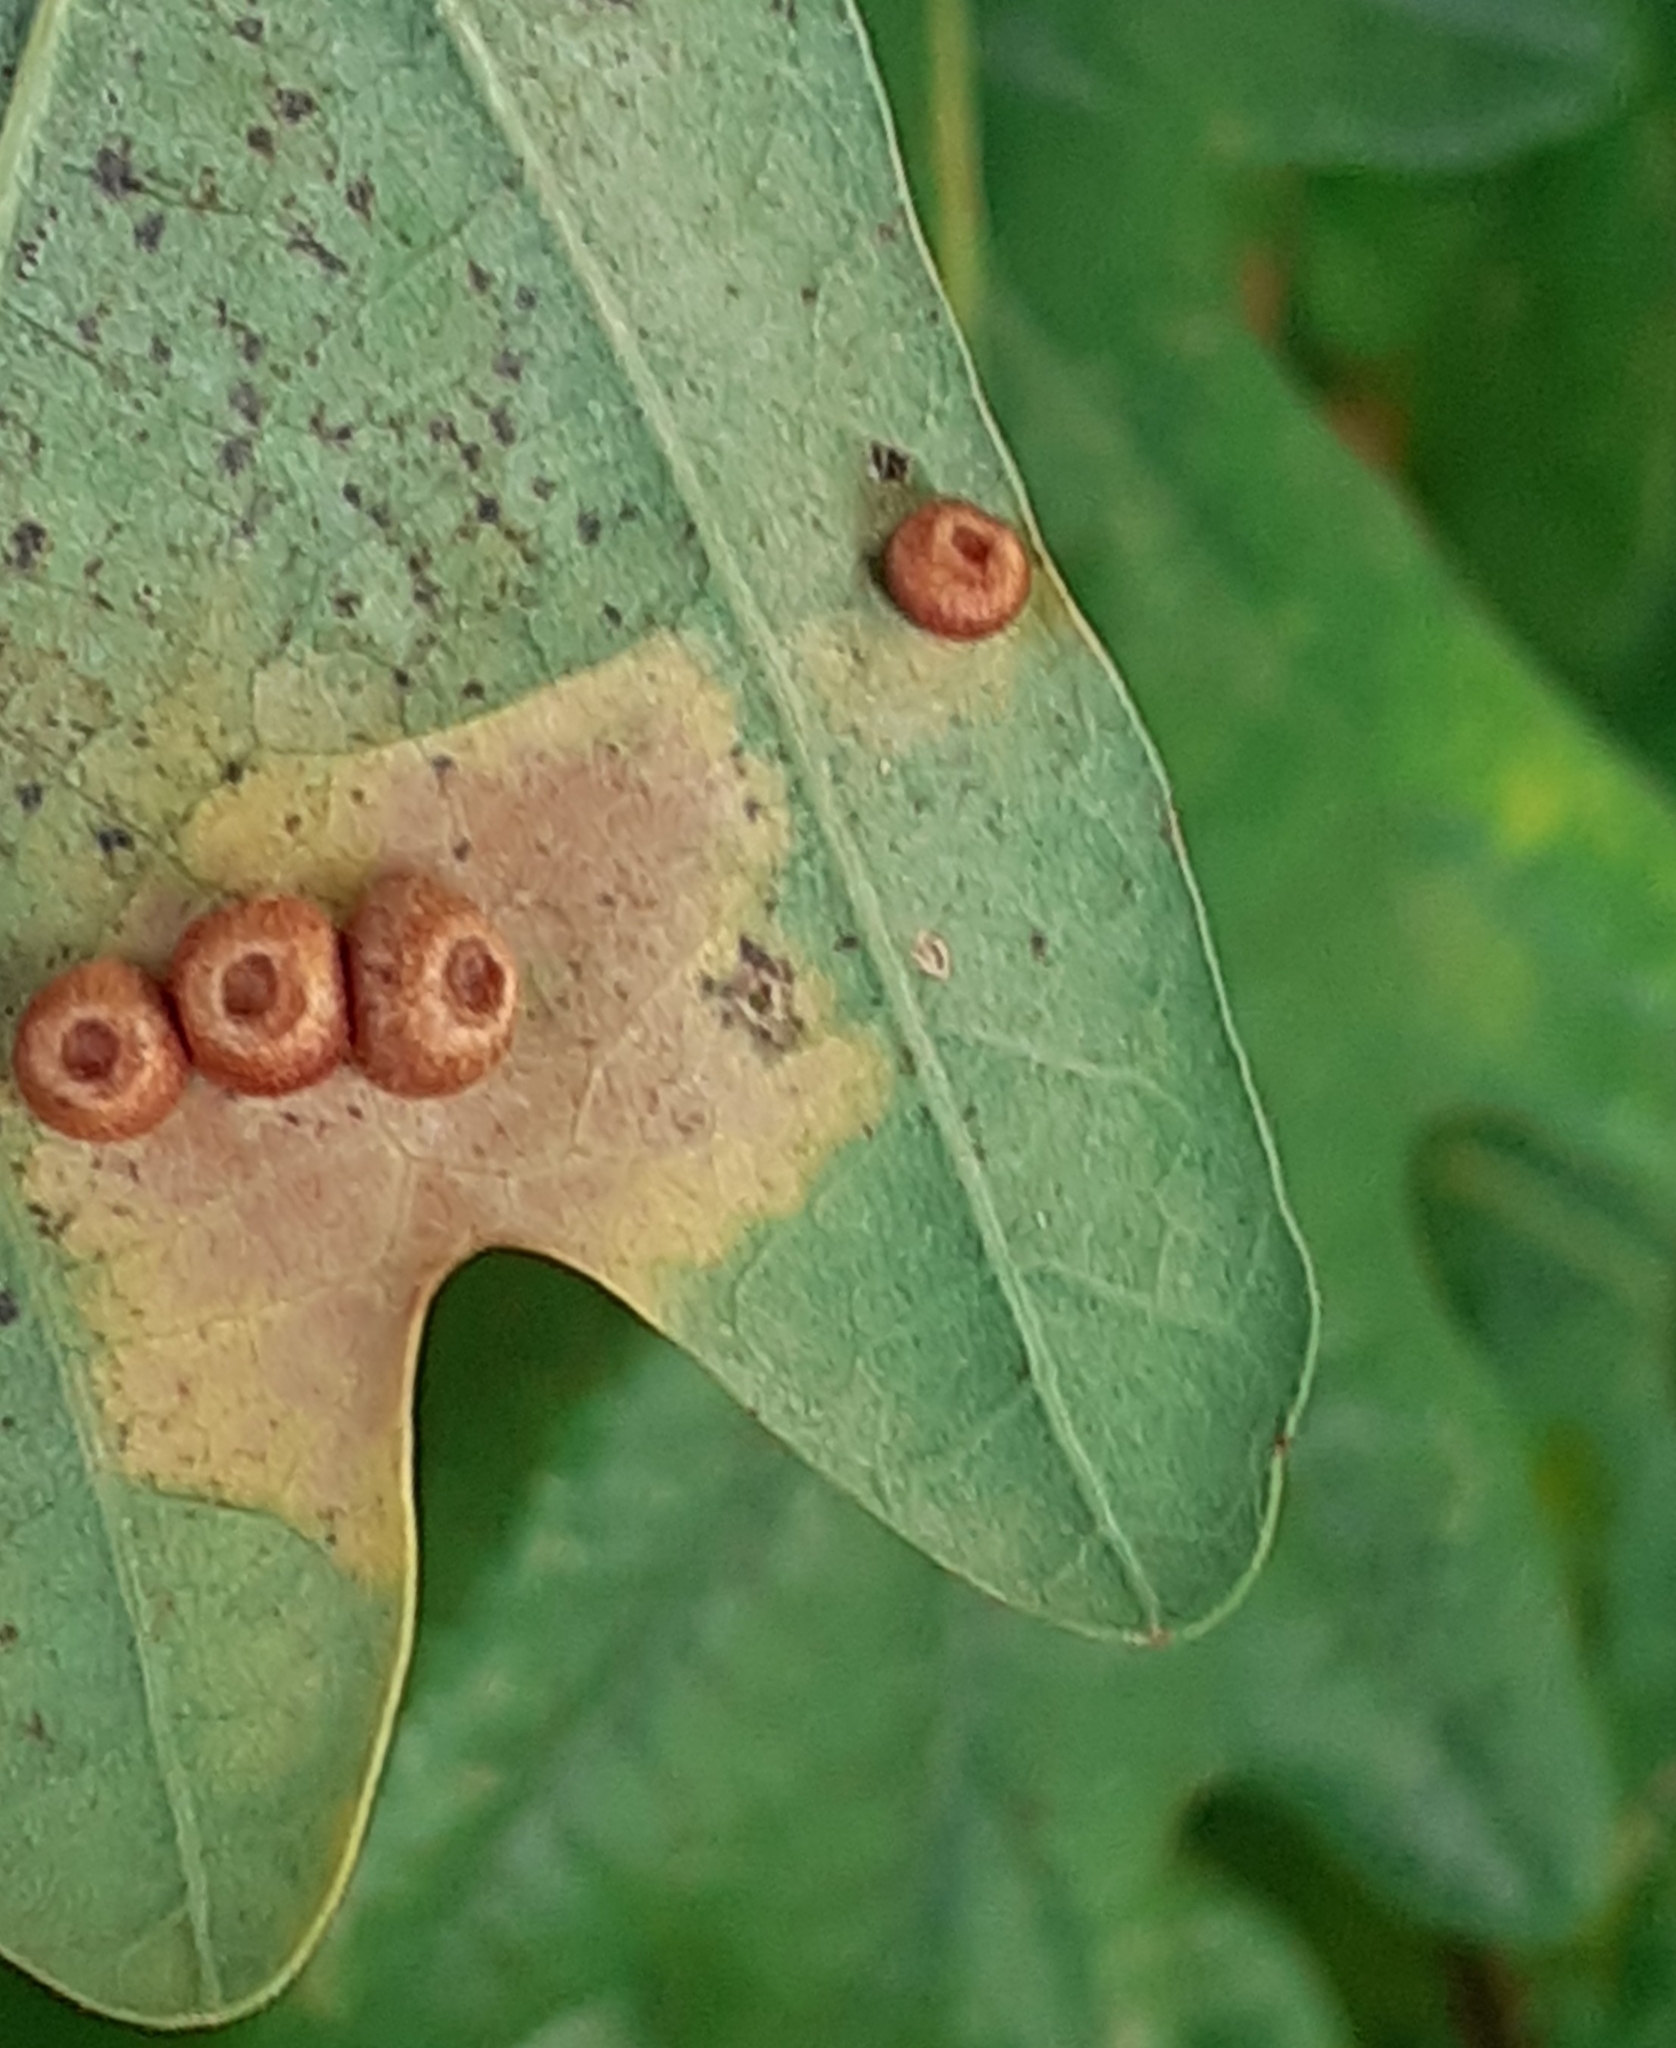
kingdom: Animalia
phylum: Arthropoda
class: Insecta
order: Hymenoptera
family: Cynipidae
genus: Neuroterus
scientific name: Neuroterus numismalis
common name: Silk-button spangle gall
